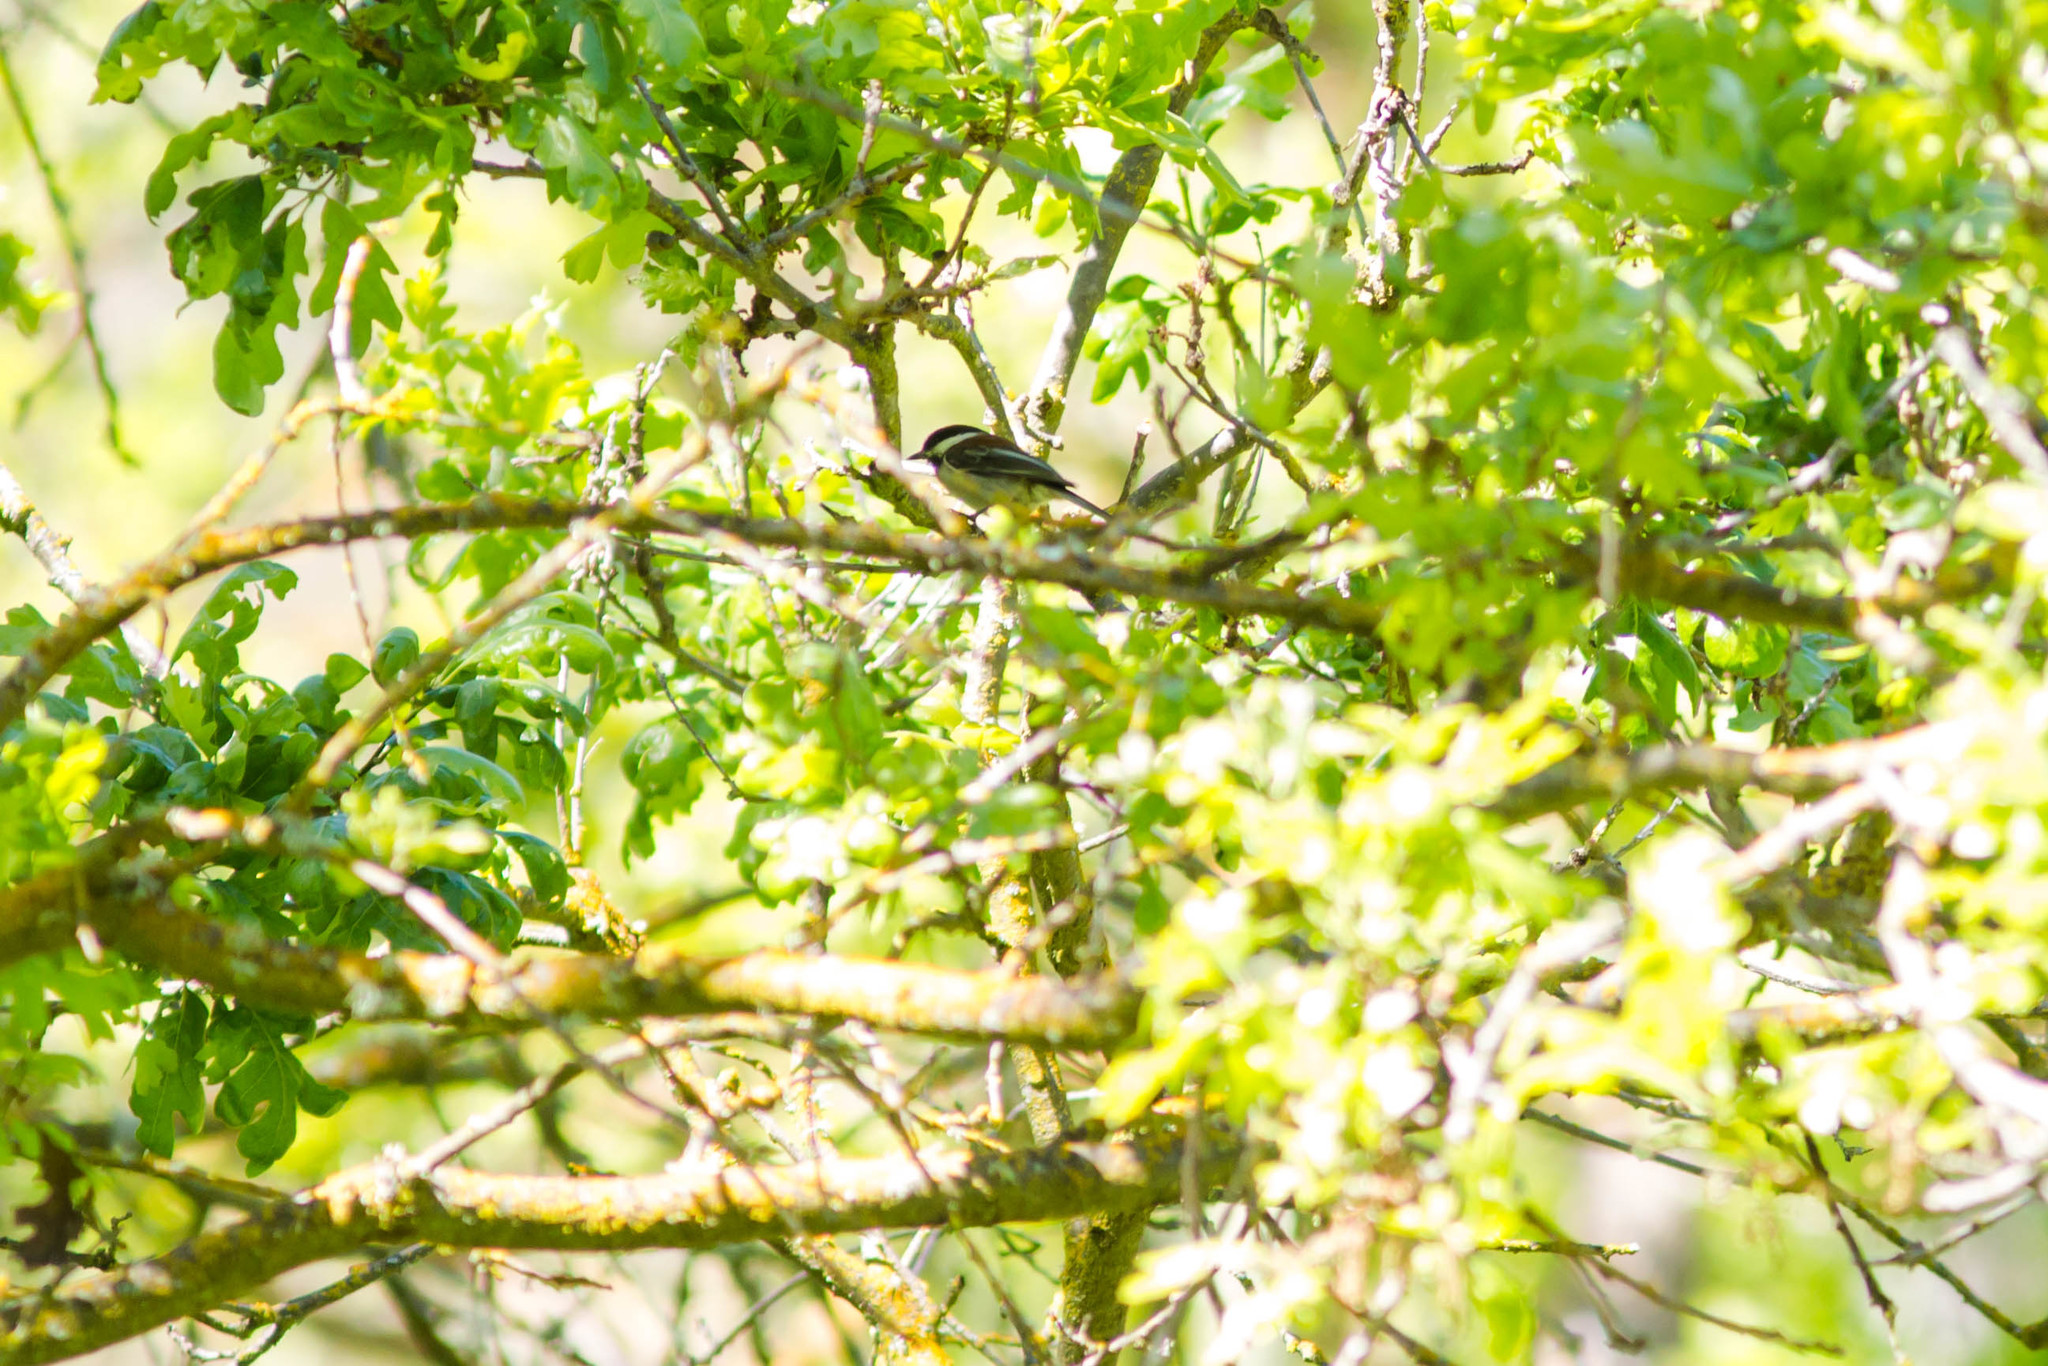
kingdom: Animalia
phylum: Chordata
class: Aves
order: Passeriformes
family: Paridae
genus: Poecile
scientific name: Poecile rufescens
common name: Chestnut-backed chickadee
